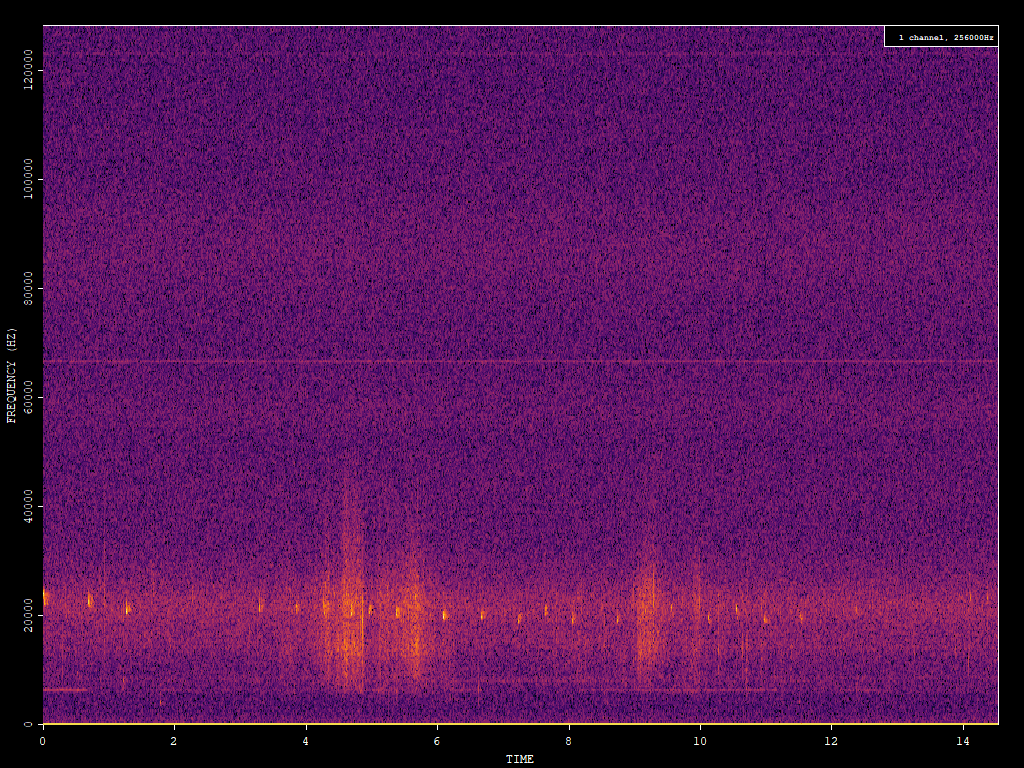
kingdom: Animalia
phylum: Chordata
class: Mammalia
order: Chiroptera
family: Vespertilionidae
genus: Nyctalus
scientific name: Nyctalus noctula
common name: Noctule
